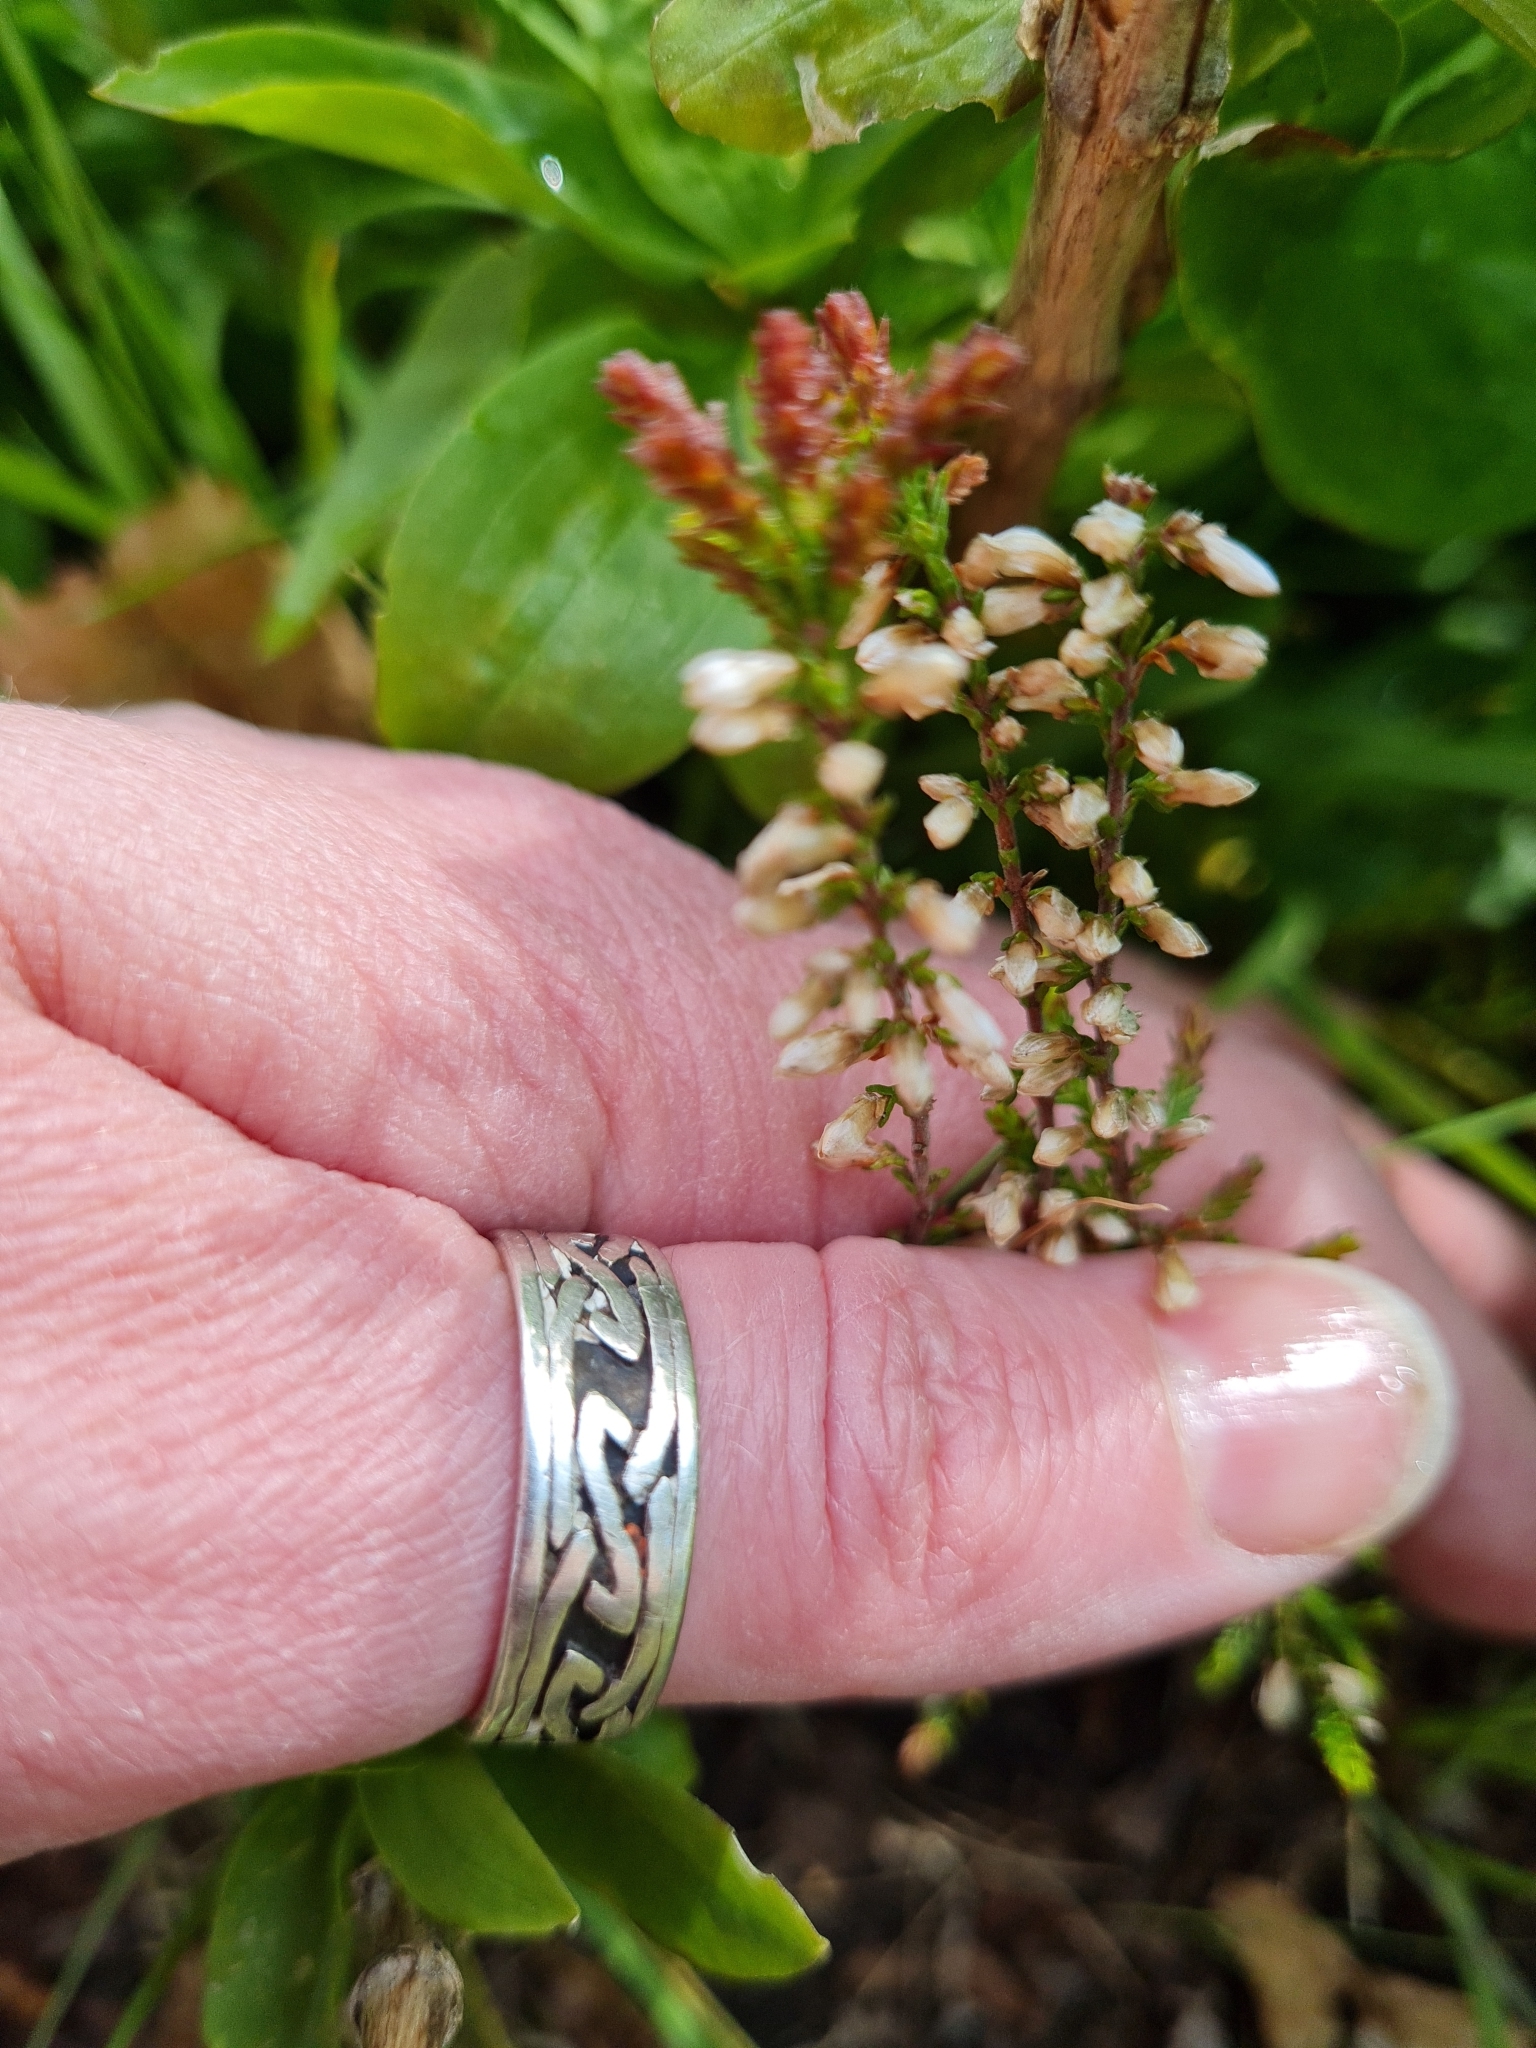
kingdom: Plantae
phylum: Tracheophyta
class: Magnoliopsida
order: Ericales
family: Ericaceae
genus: Calluna
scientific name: Calluna vulgaris
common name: Heather
